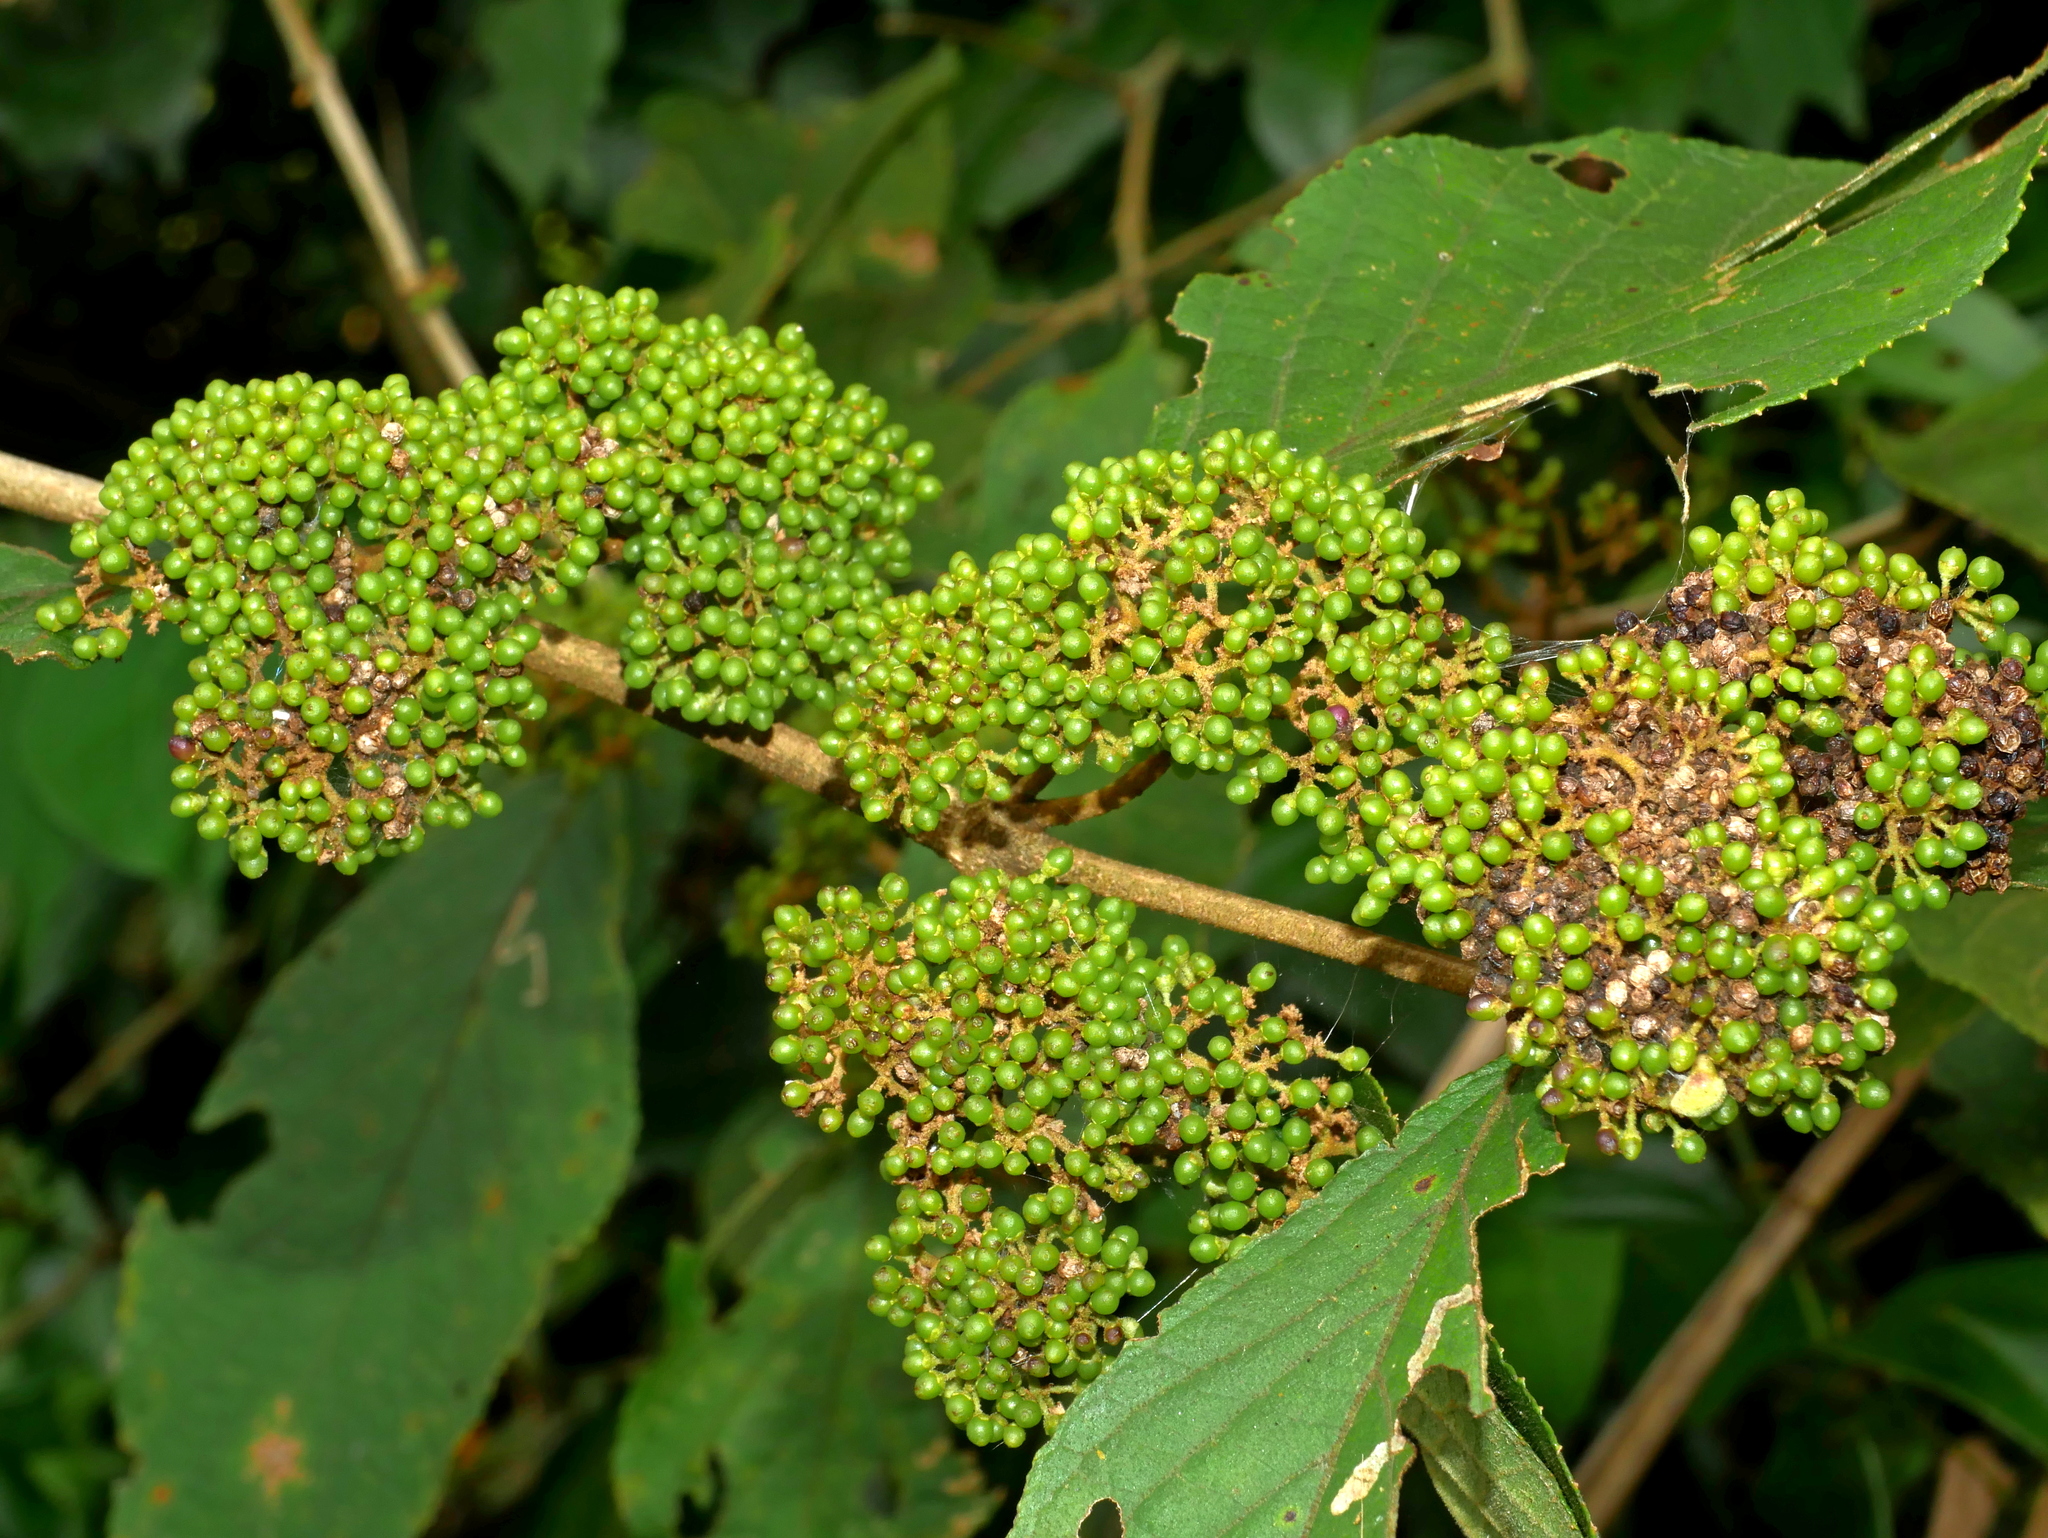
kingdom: Plantae
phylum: Tracheophyta
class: Magnoliopsida
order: Lamiales
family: Lamiaceae
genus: Callicarpa
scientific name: Callicarpa pedunculata
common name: Velvetleaf
